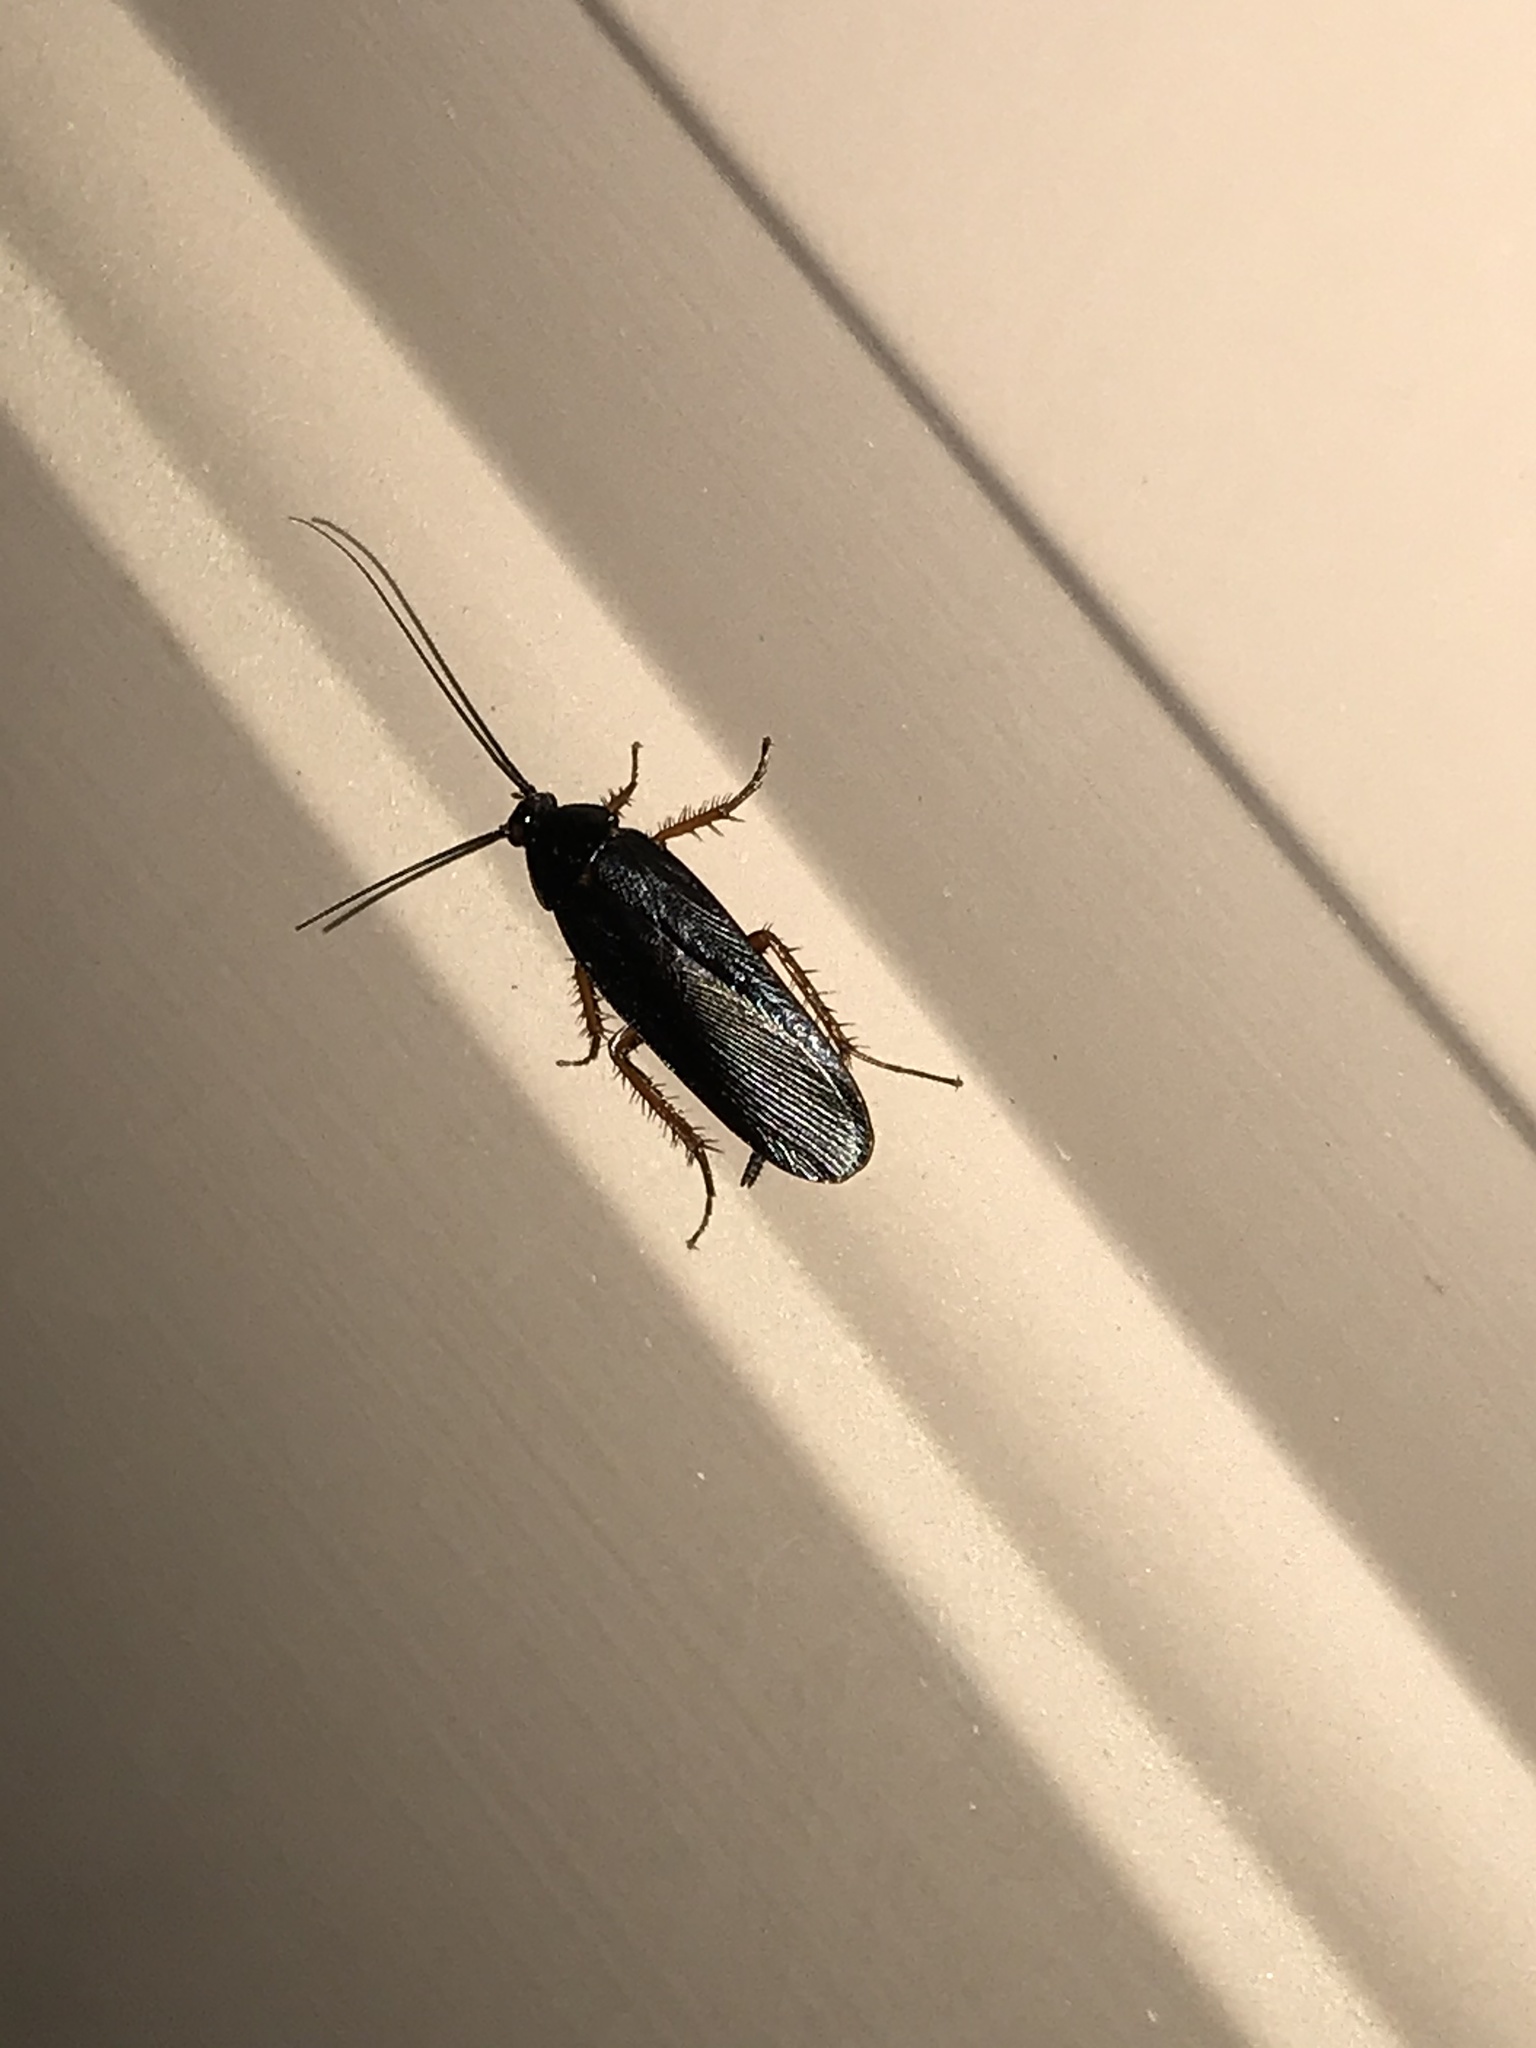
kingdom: Animalia
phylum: Arthropoda
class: Insecta
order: Blattodea
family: Ectobiidae
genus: Ischnoptera
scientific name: Ischnoptera deropeltiformis
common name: Dark wood cockroach
